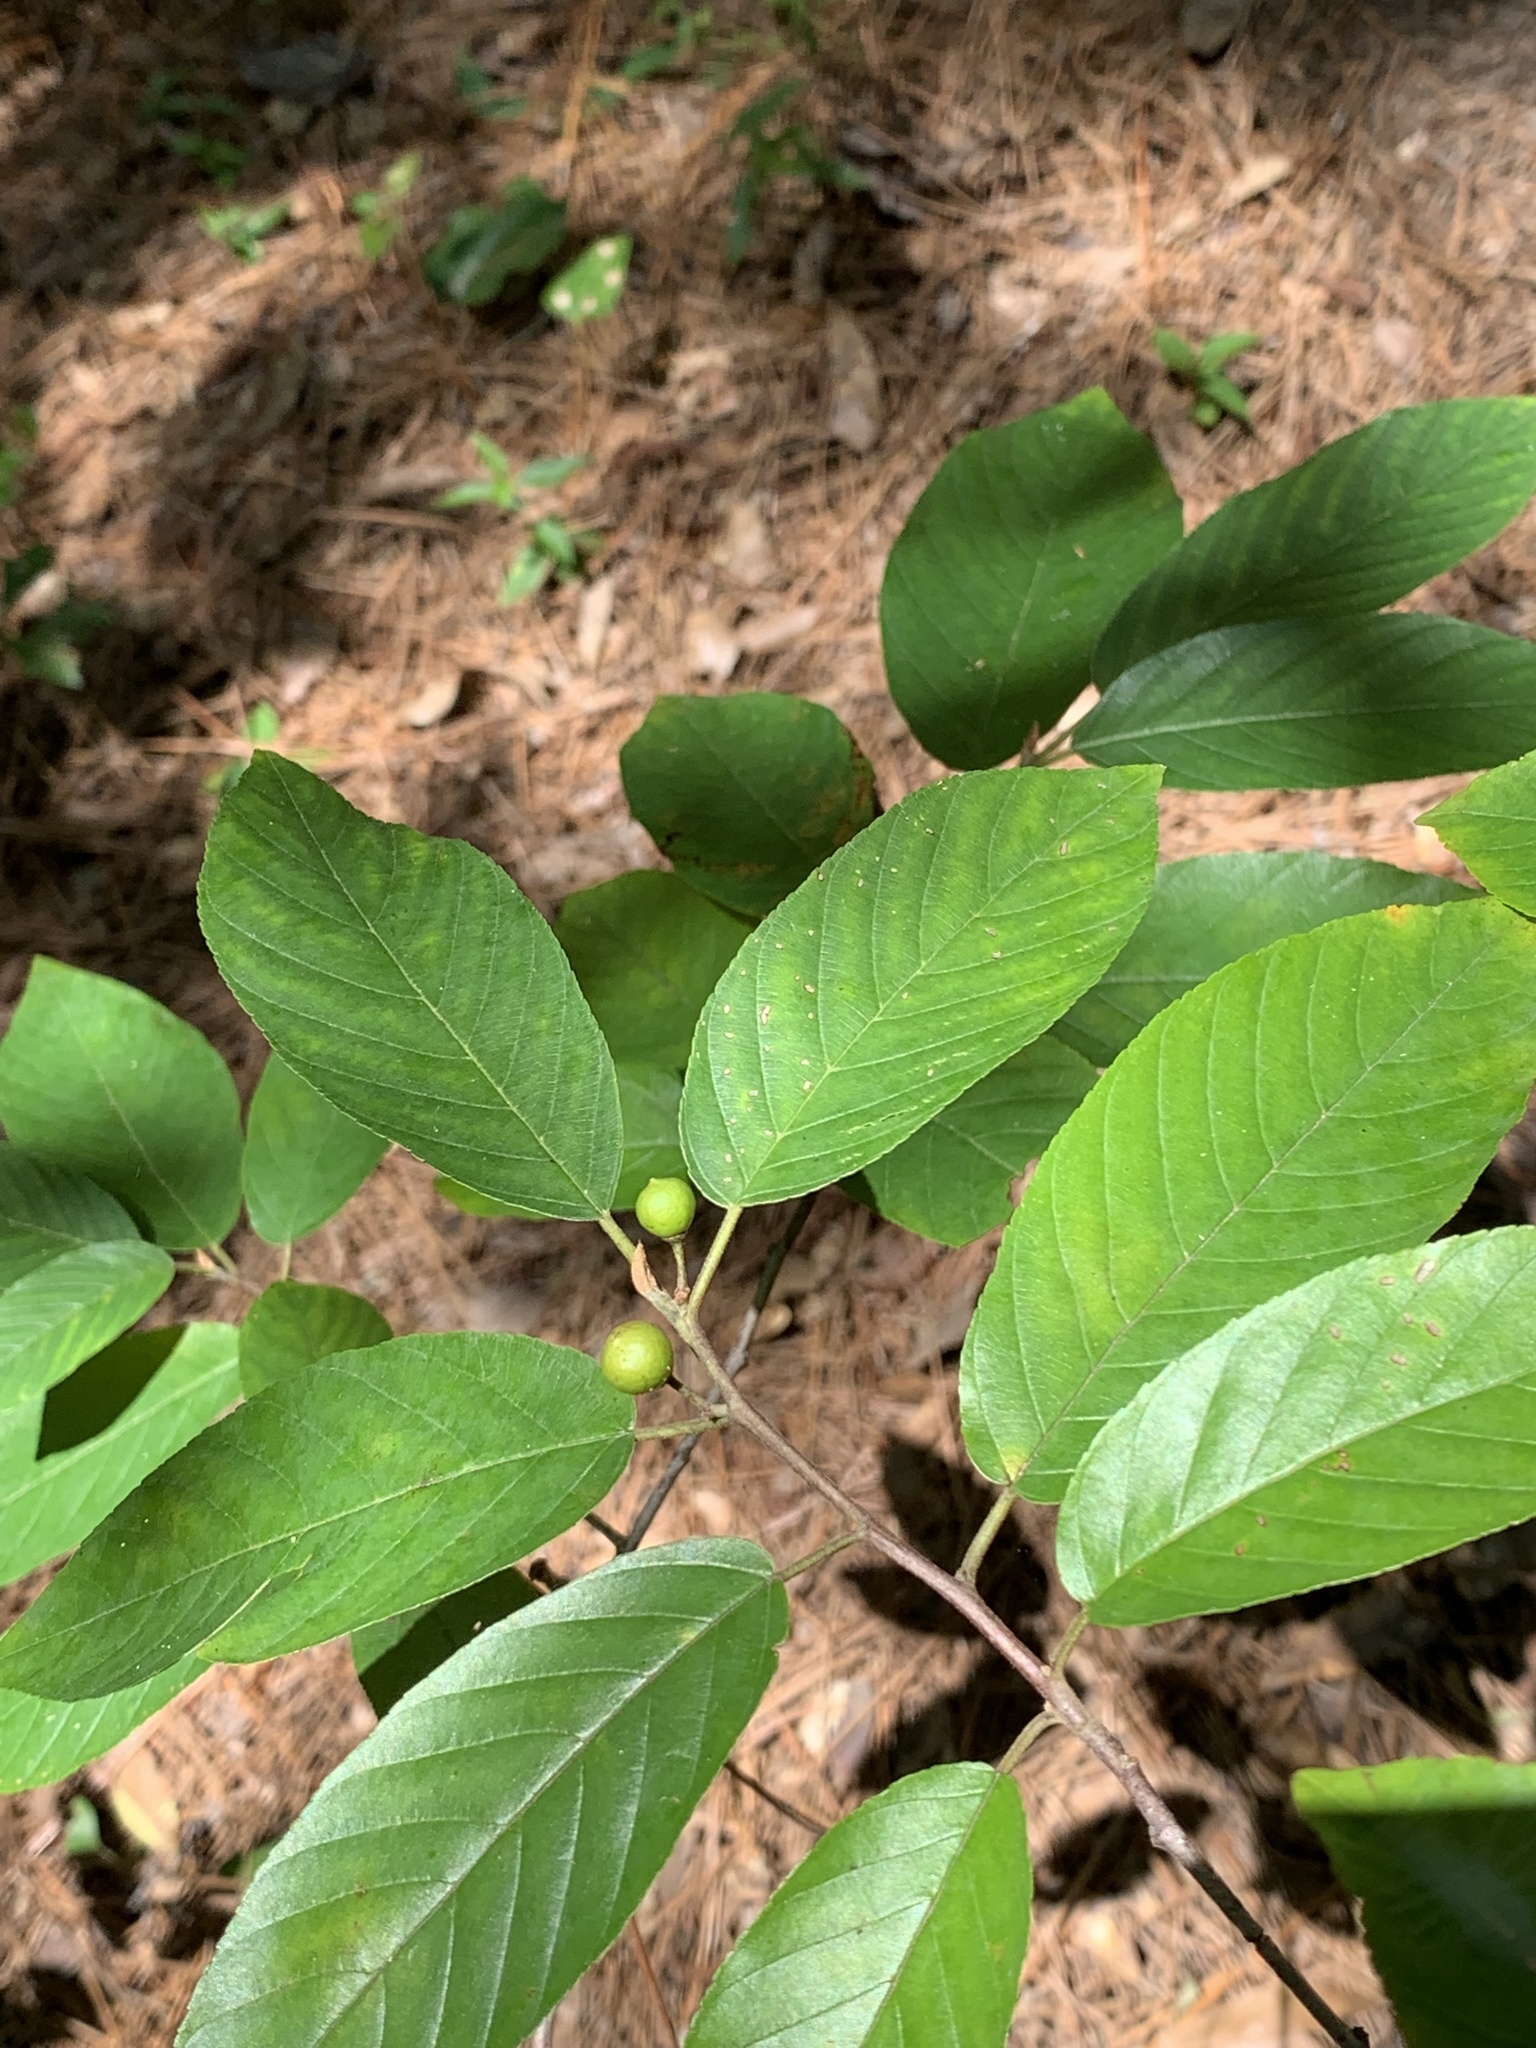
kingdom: Plantae
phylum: Tracheophyta
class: Magnoliopsida
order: Rosales
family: Rhamnaceae
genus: Frangula
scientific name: Frangula caroliniana
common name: Carolina buckthorn
